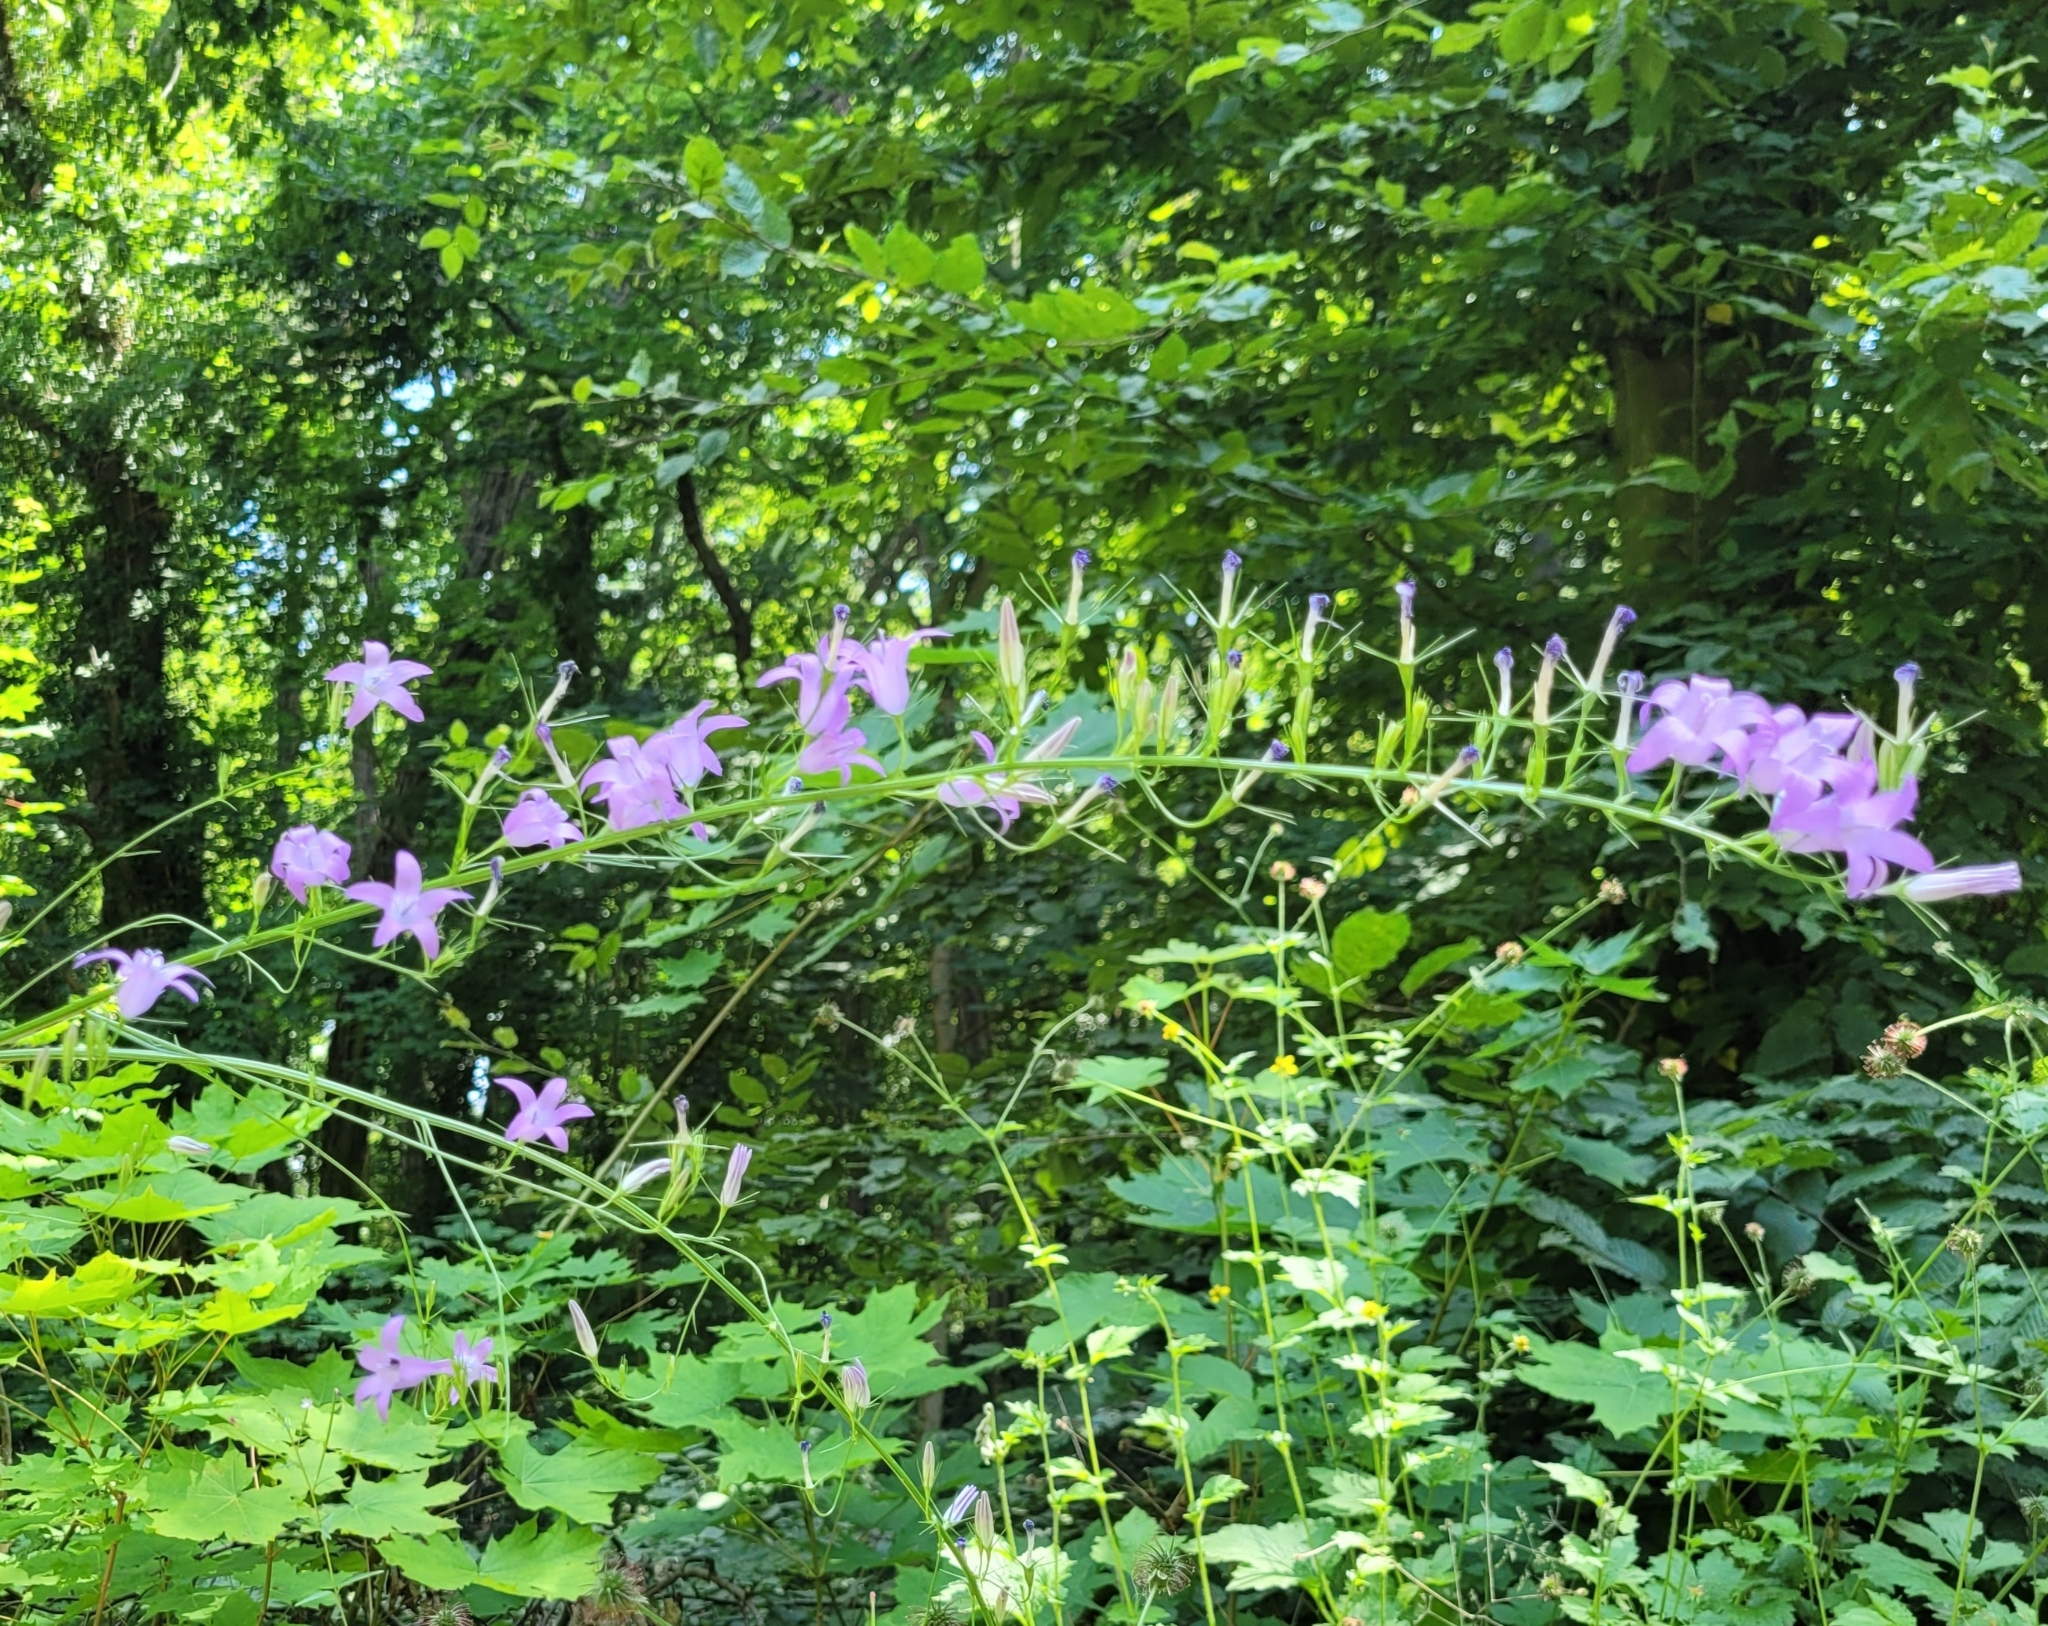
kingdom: Plantae
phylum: Tracheophyta
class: Magnoliopsida
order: Asterales
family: Campanulaceae
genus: Campanula
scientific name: Campanula rapunculus
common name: Rampion bellflower
